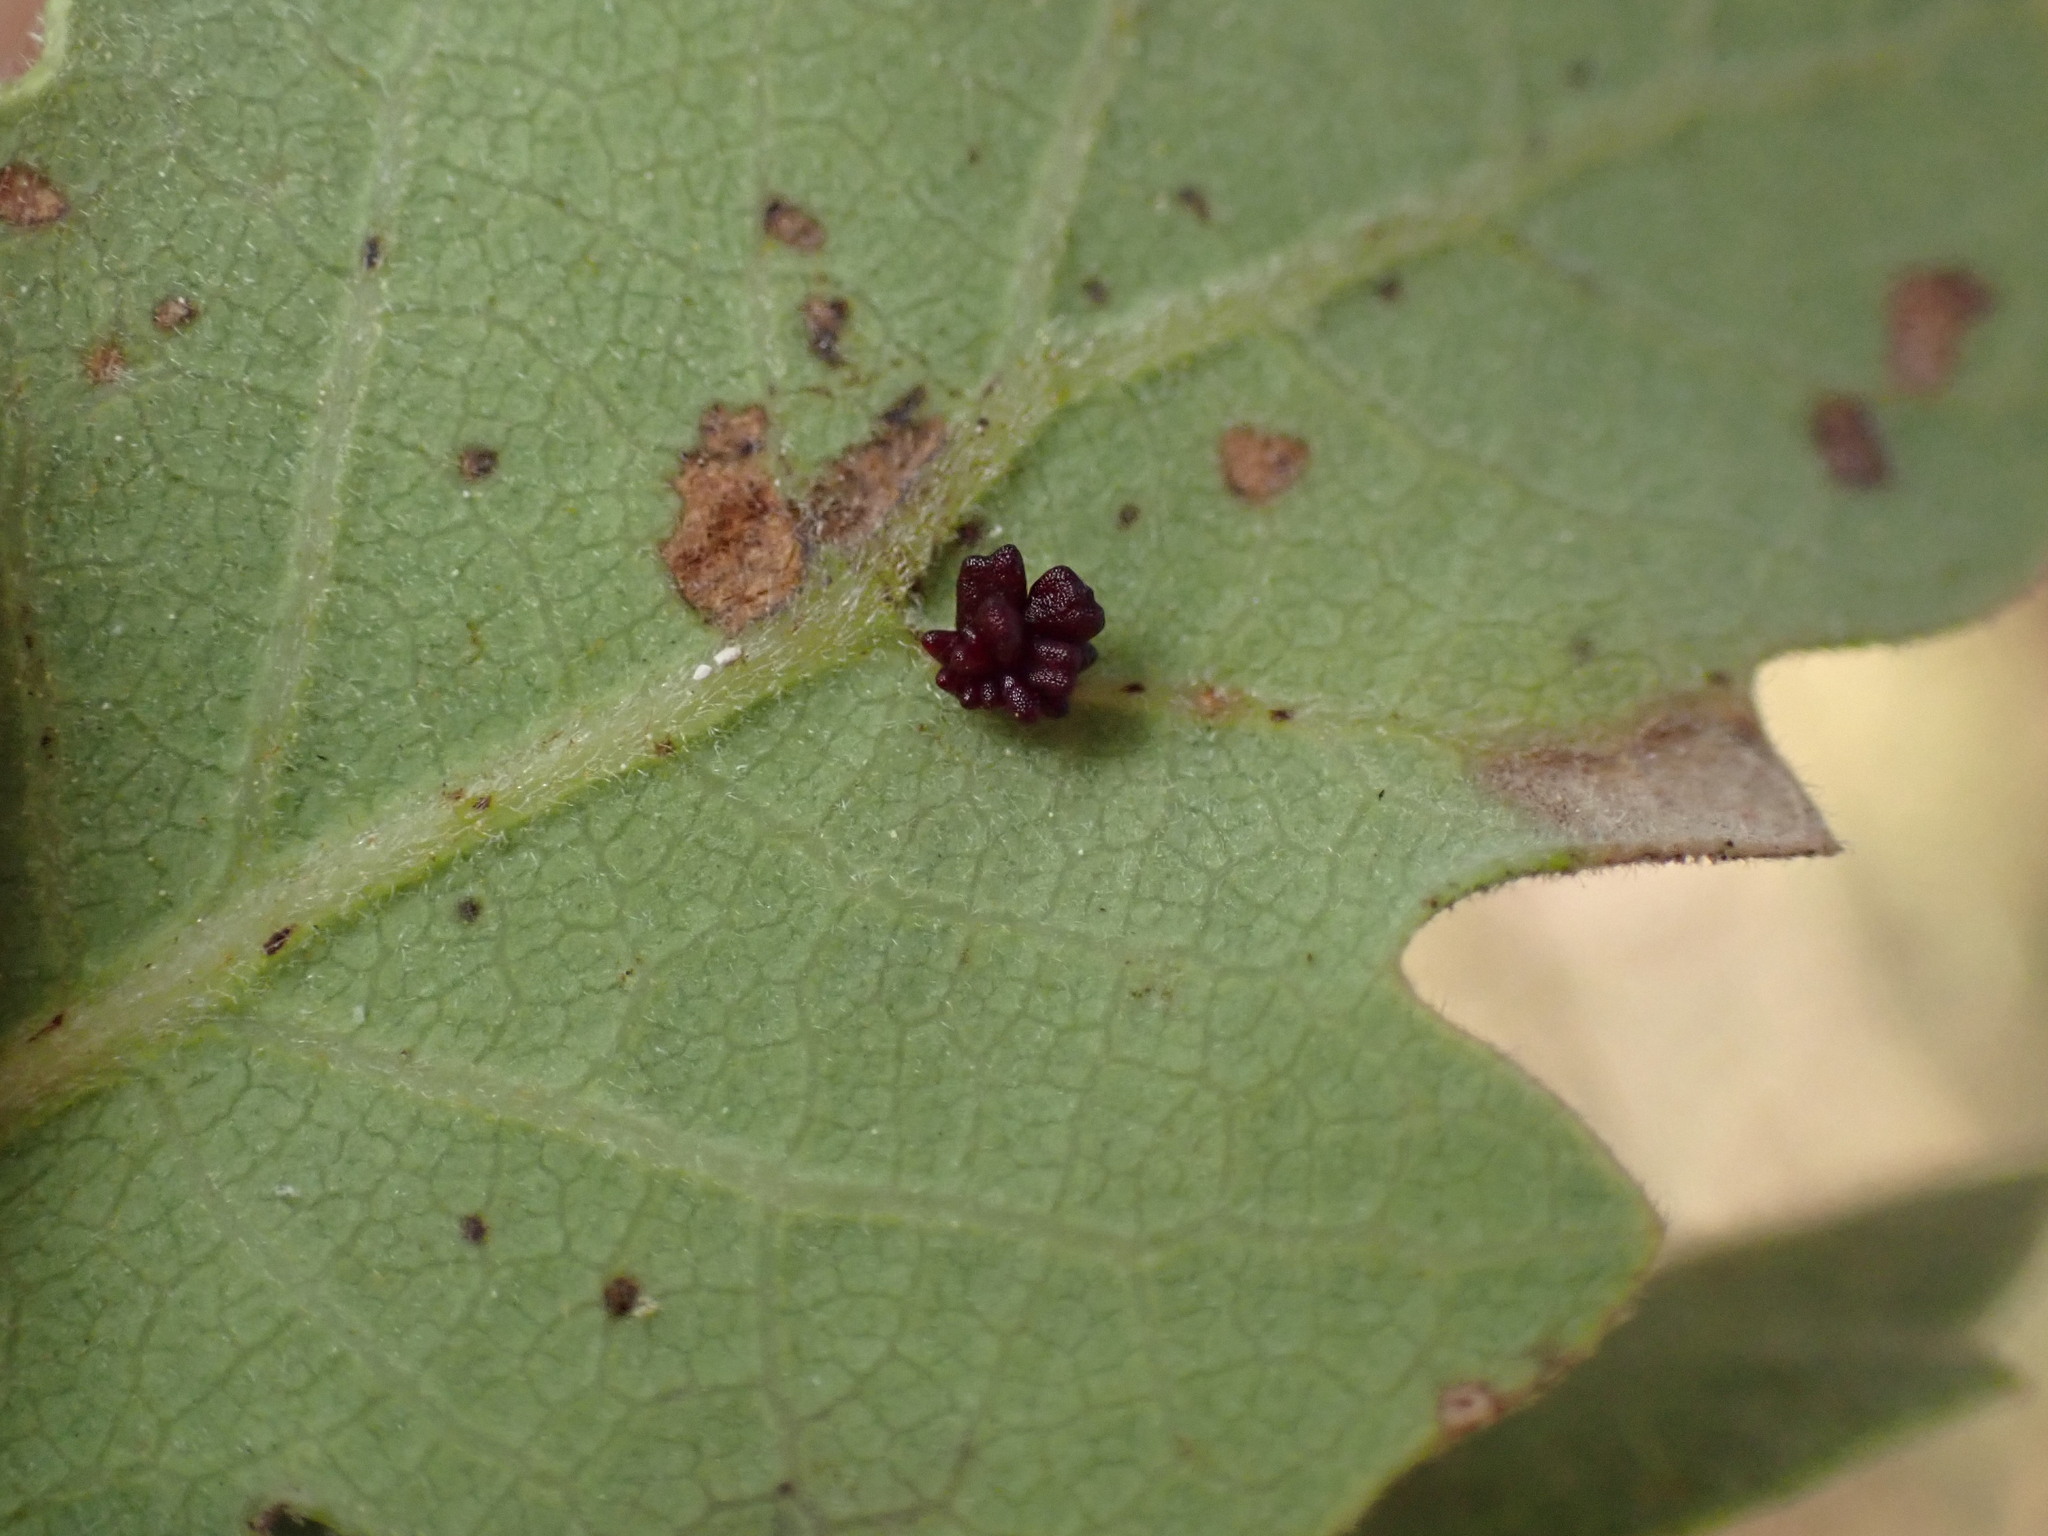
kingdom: Animalia
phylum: Arthropoda
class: Insecta
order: Hymenoptera
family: Cynipidae
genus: Cynips
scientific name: Cynips
